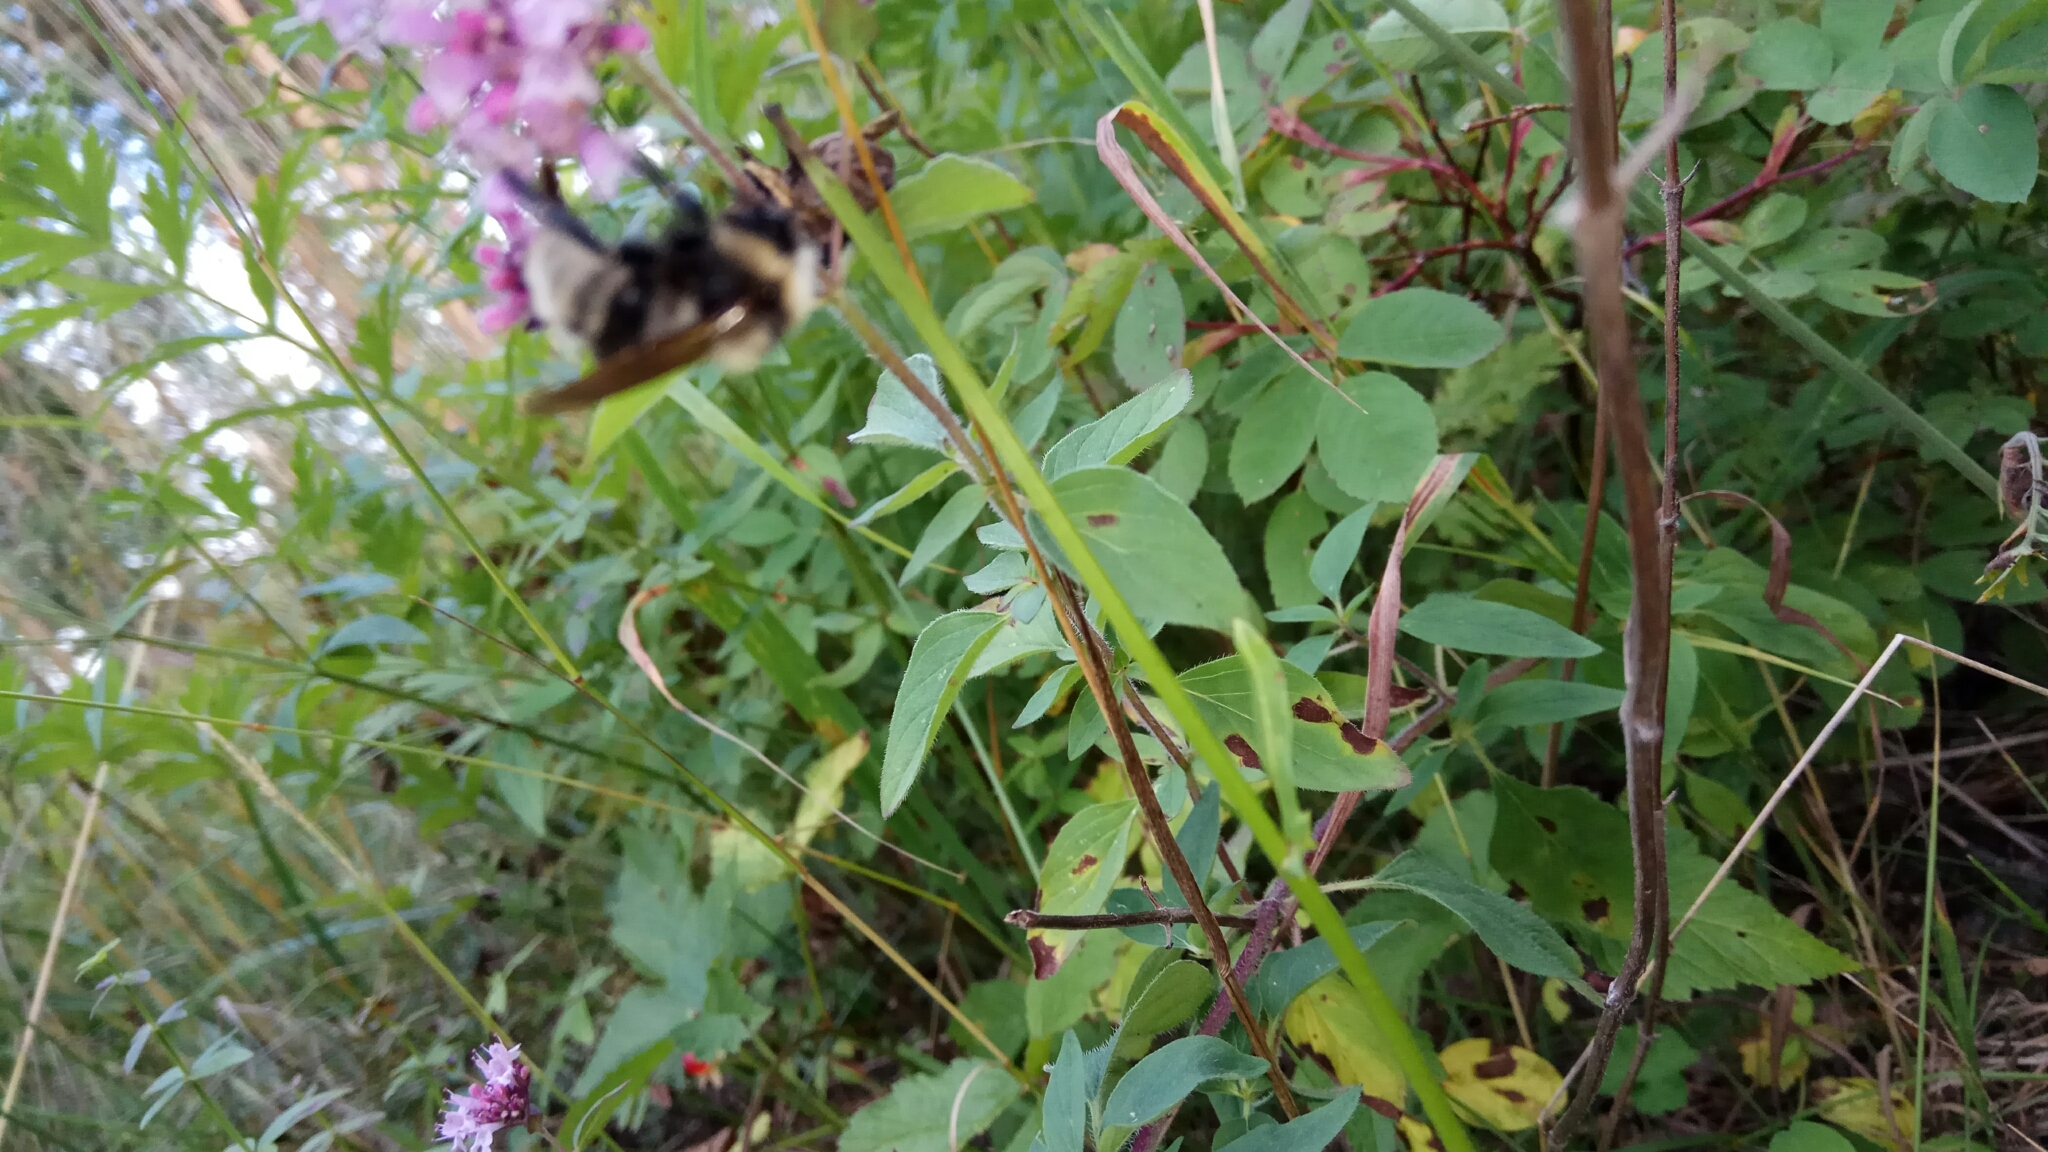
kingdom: Plantae
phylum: Tracheophyta
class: Magnoliopsida
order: Lamiales
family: Lamiaceae
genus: Origanum
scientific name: Origanum vulgare
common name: Wild marjoram
